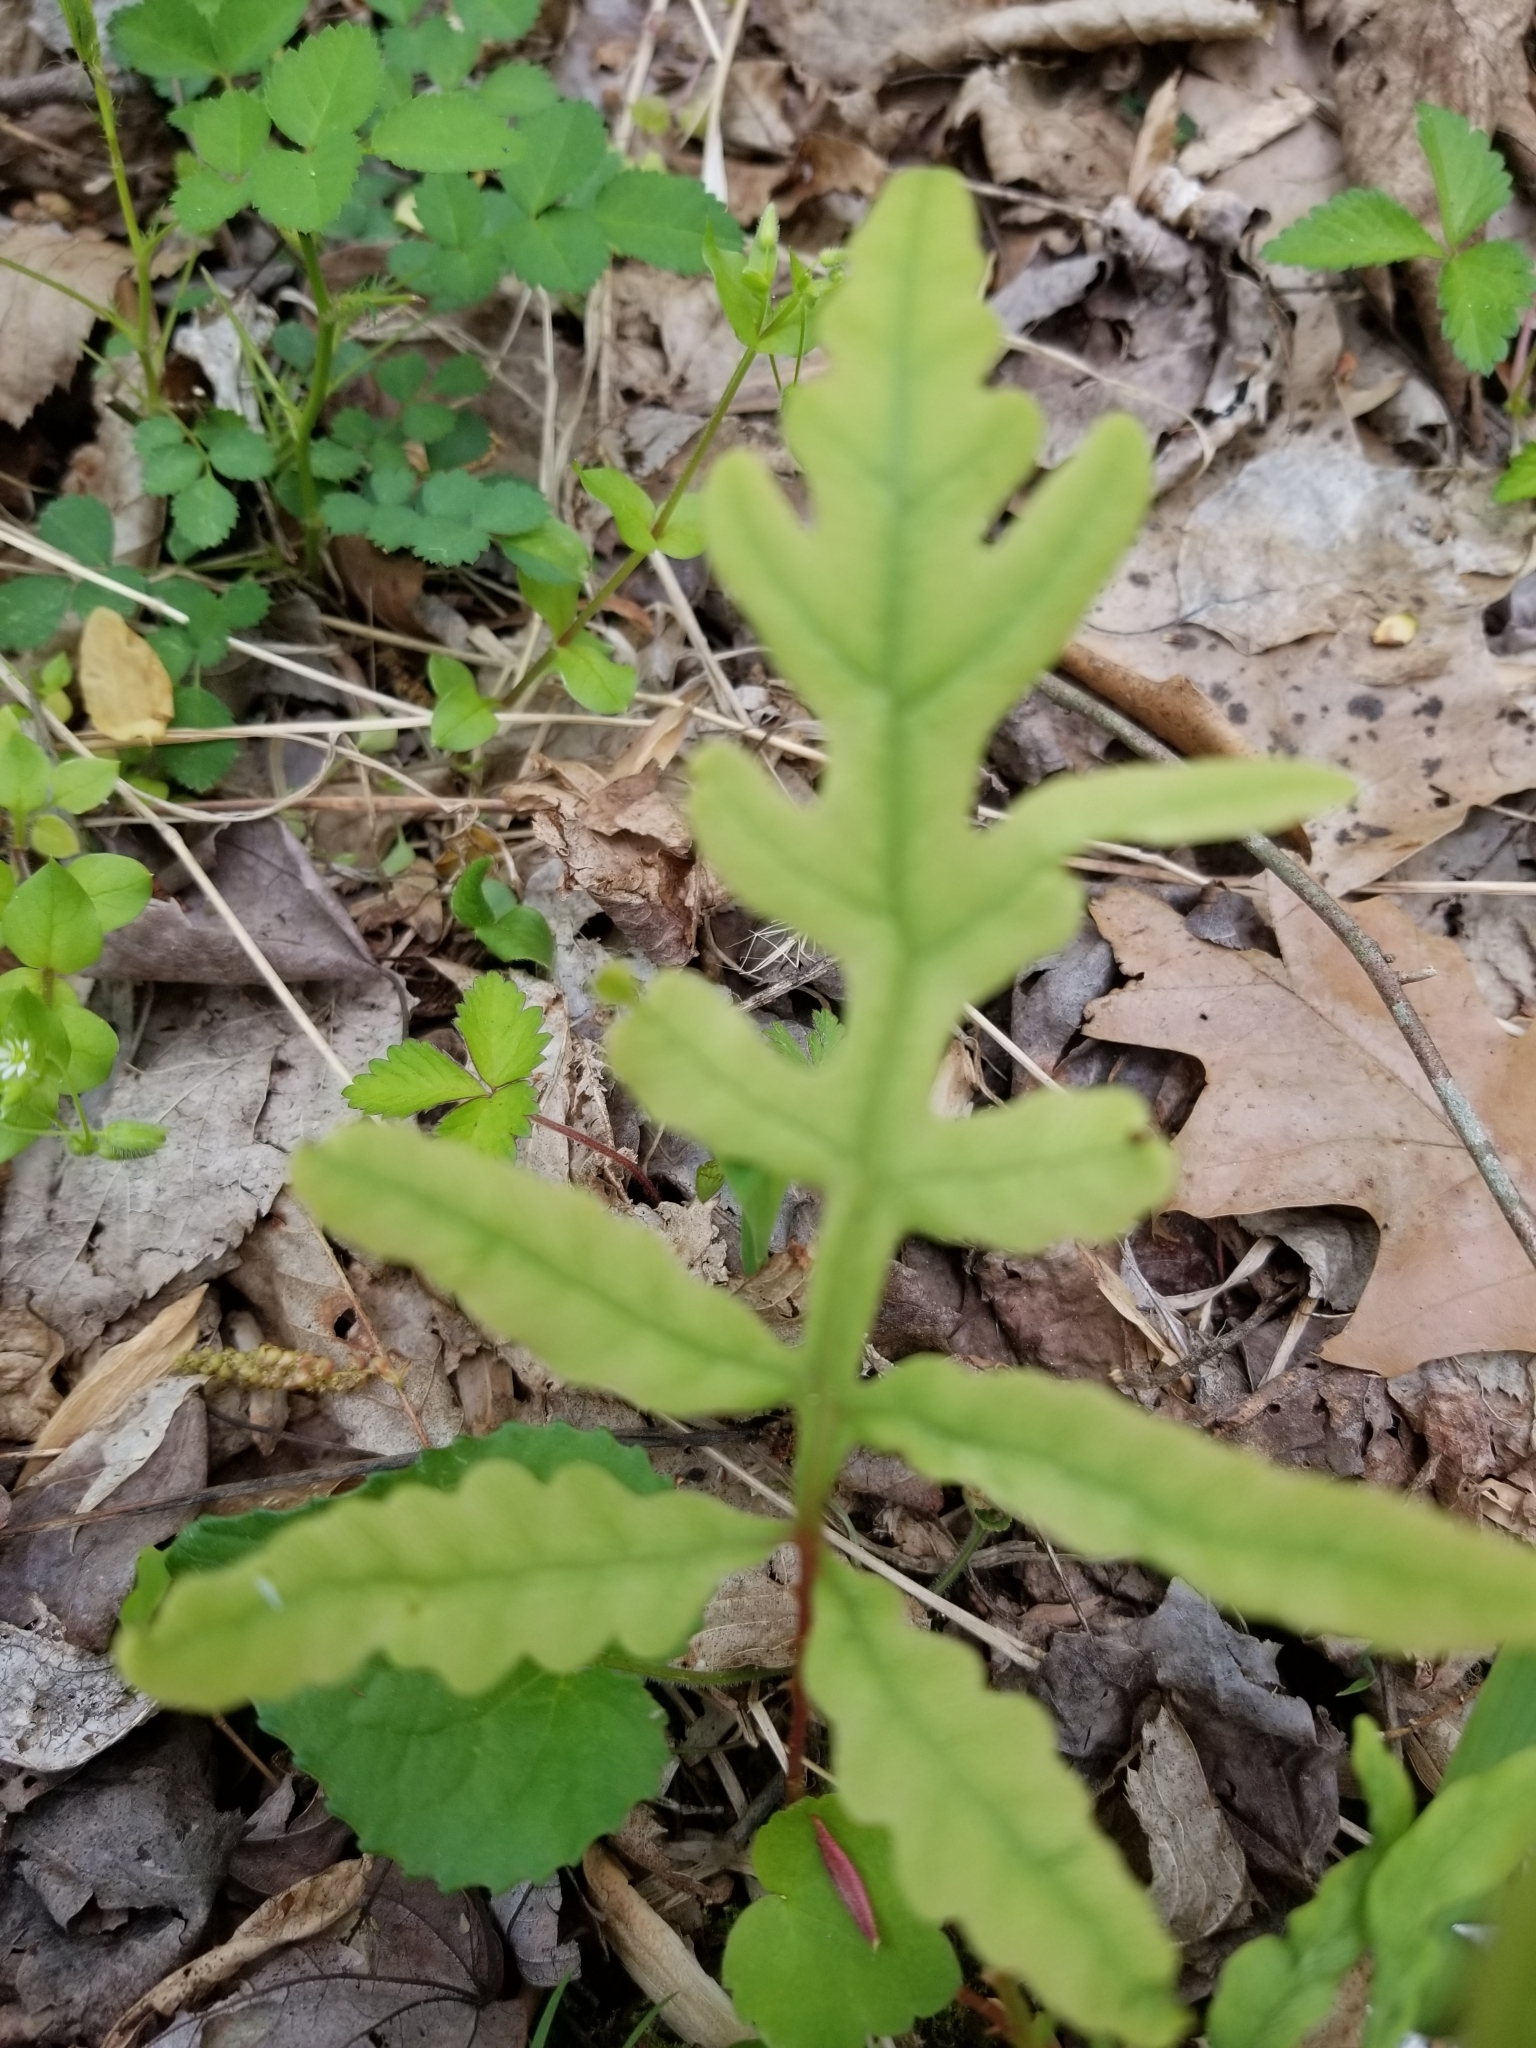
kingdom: Plantae
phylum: Tracheophyta
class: Polypodiopsida
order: Polypodiales
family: Onocleaceae
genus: Onoclea
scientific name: Onoclea sensibilis
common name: Sensitive fern
